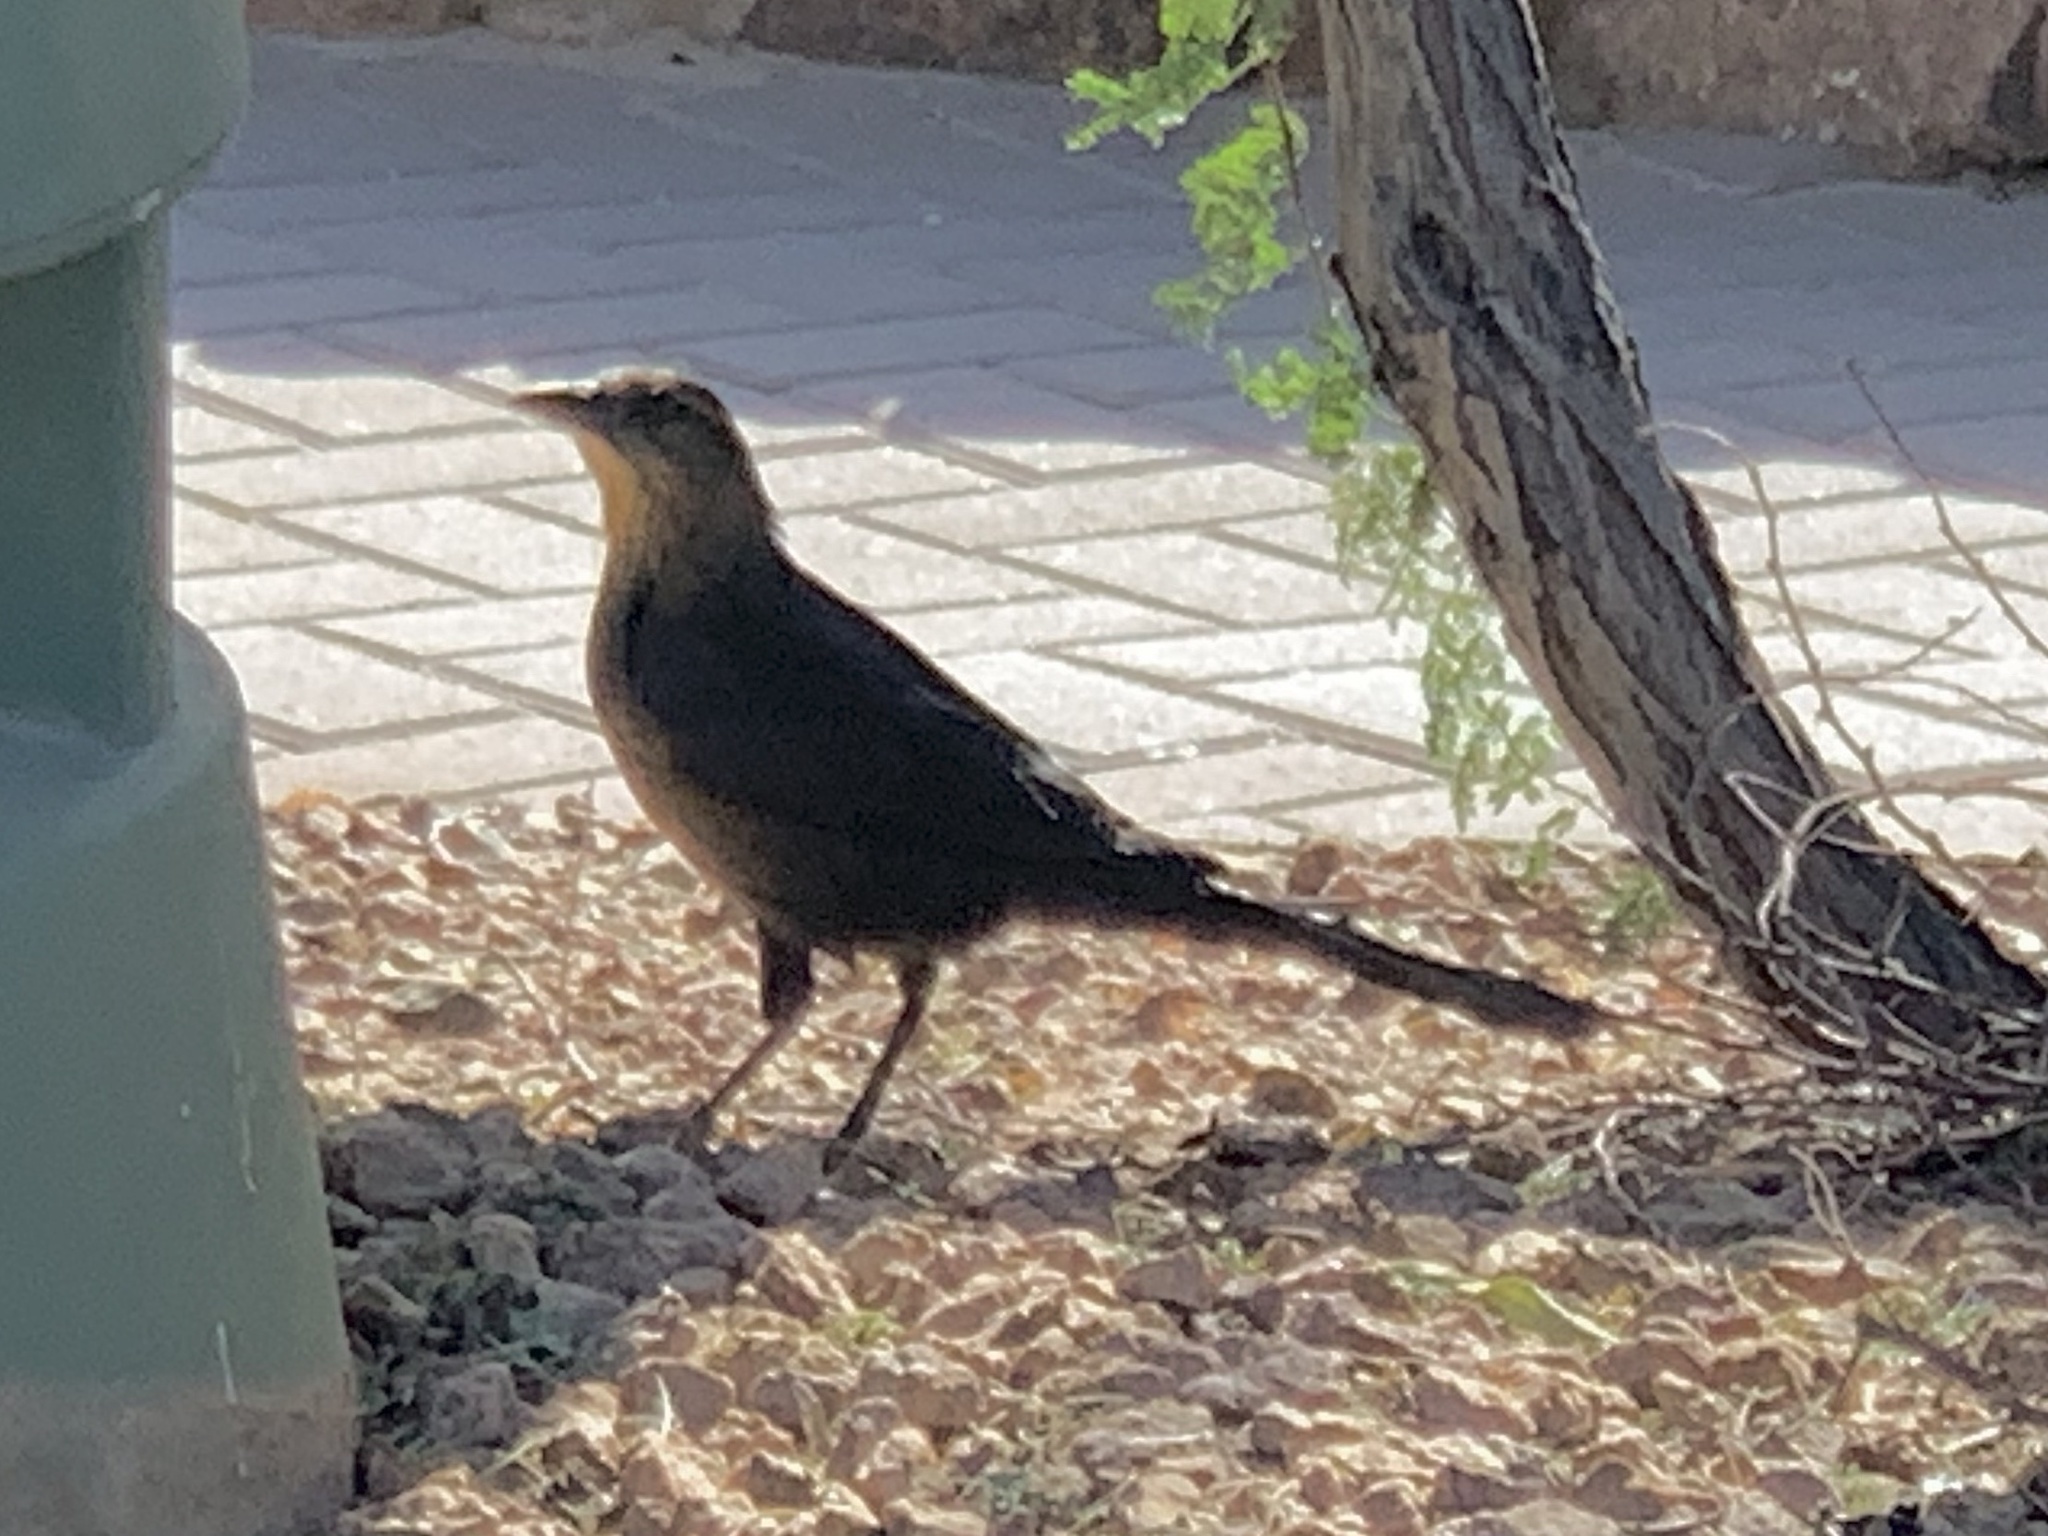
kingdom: Animalia
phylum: Chordata
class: Aves
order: Passeriformes
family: Icteridae
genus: Quiscalus
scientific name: Quiscalus mexicanus
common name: Great-tailed grackle
